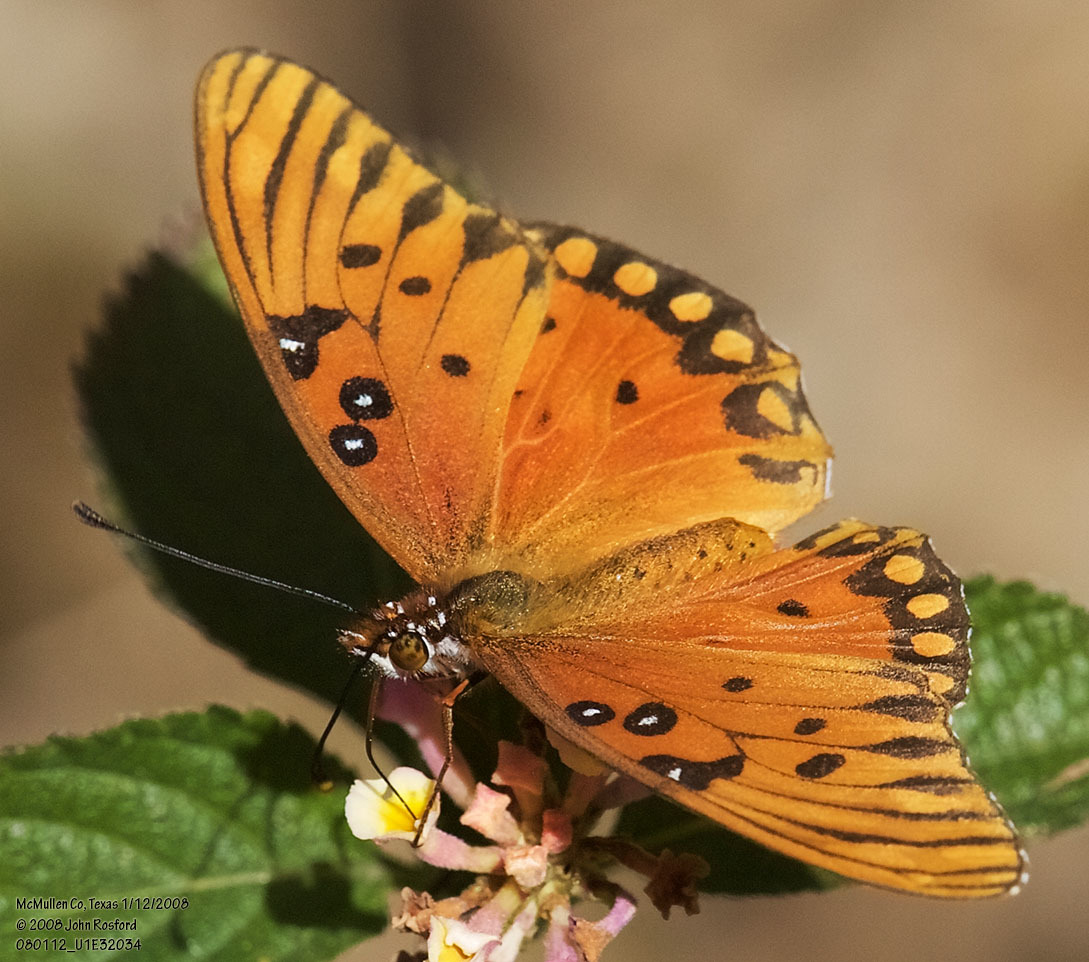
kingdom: Animalia
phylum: Arthropoda
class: Insecta
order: Lepidoptera
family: Nymphalidae
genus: Dione
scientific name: Dione vanillae
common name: Gulf fritillary
